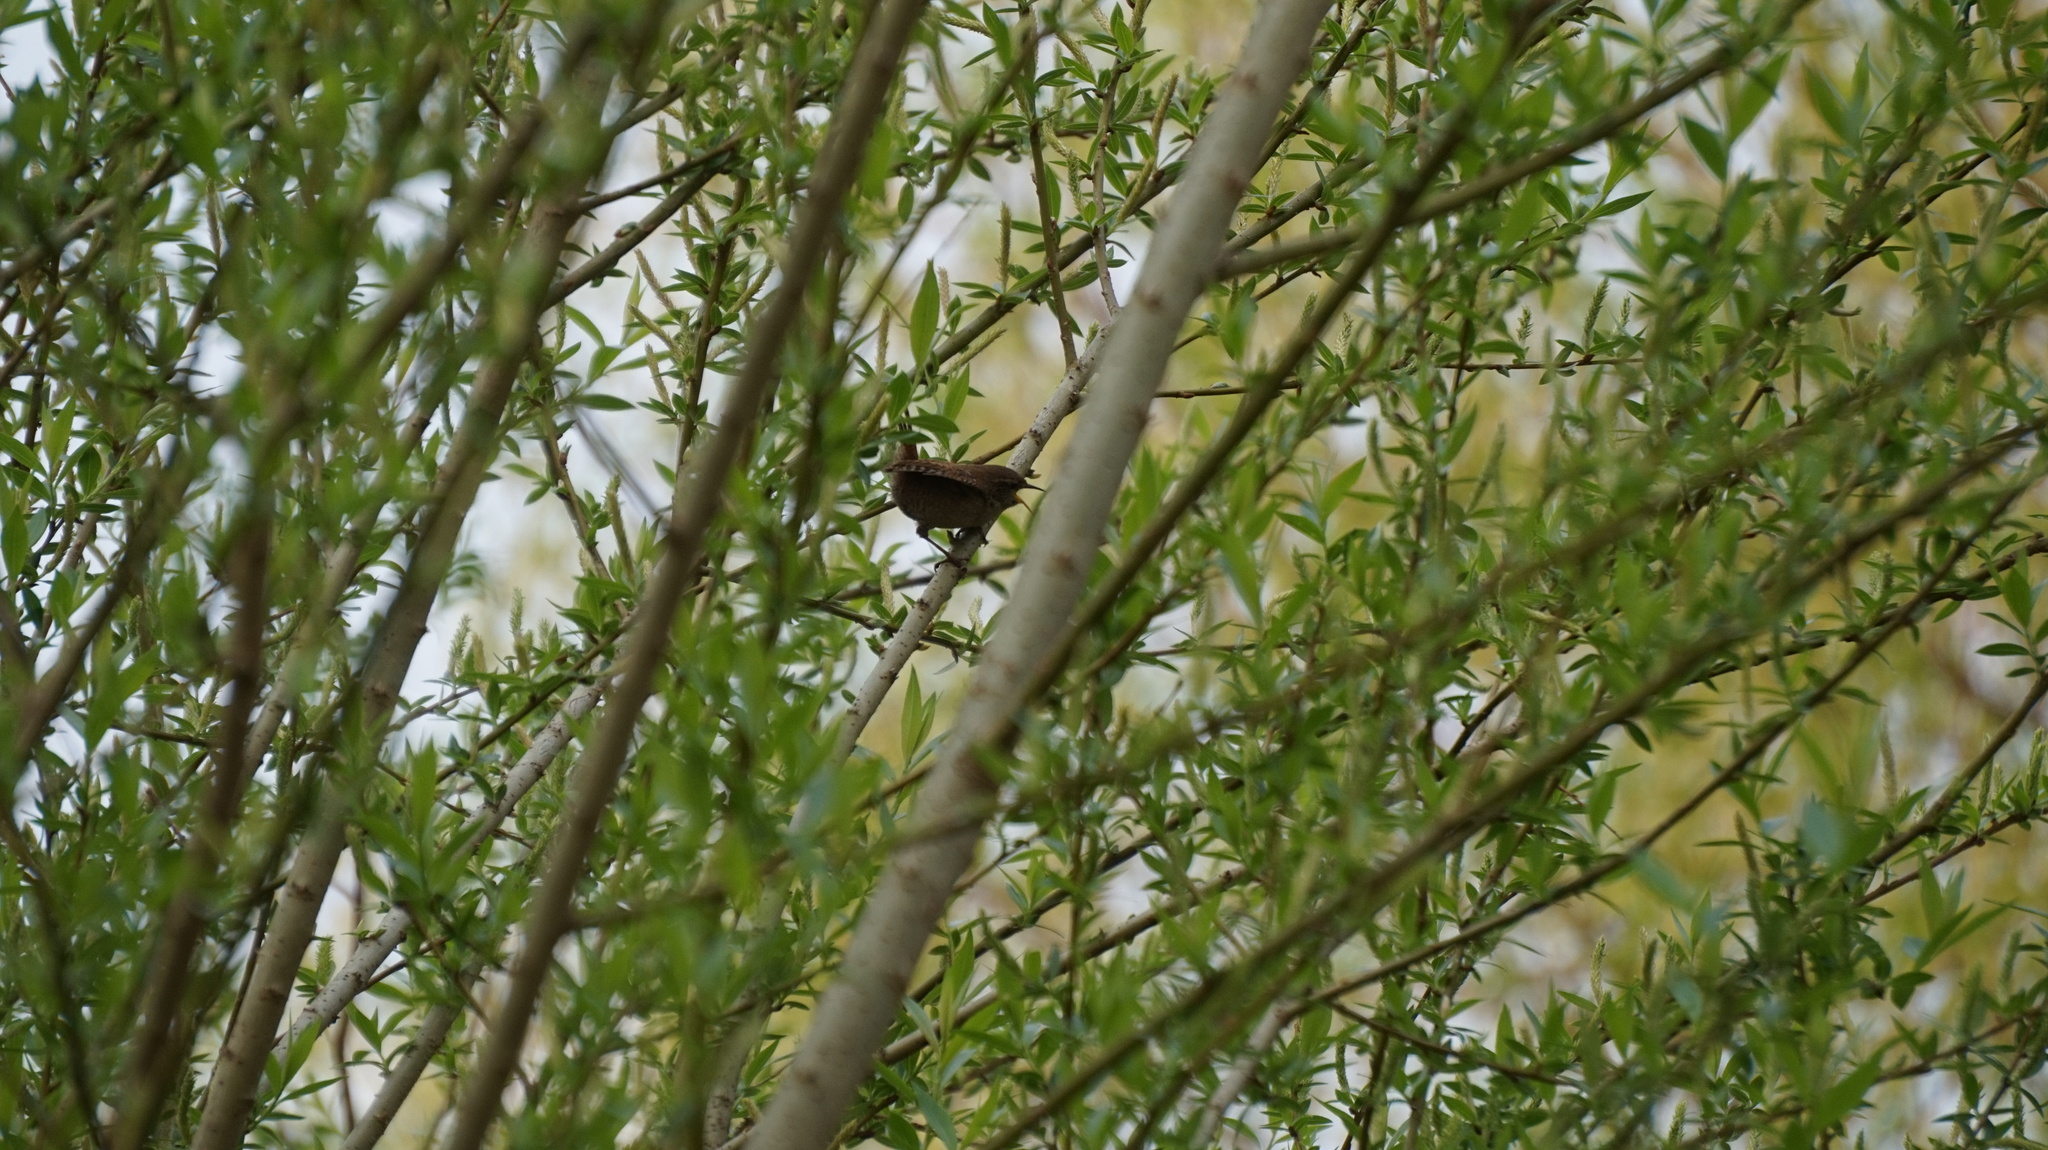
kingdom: Animalia
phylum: Chordata
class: Aves
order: Passeriformes
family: Troglodytidae
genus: Troglodytes
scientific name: Troglodytes troglodytes
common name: Eurasian wren
